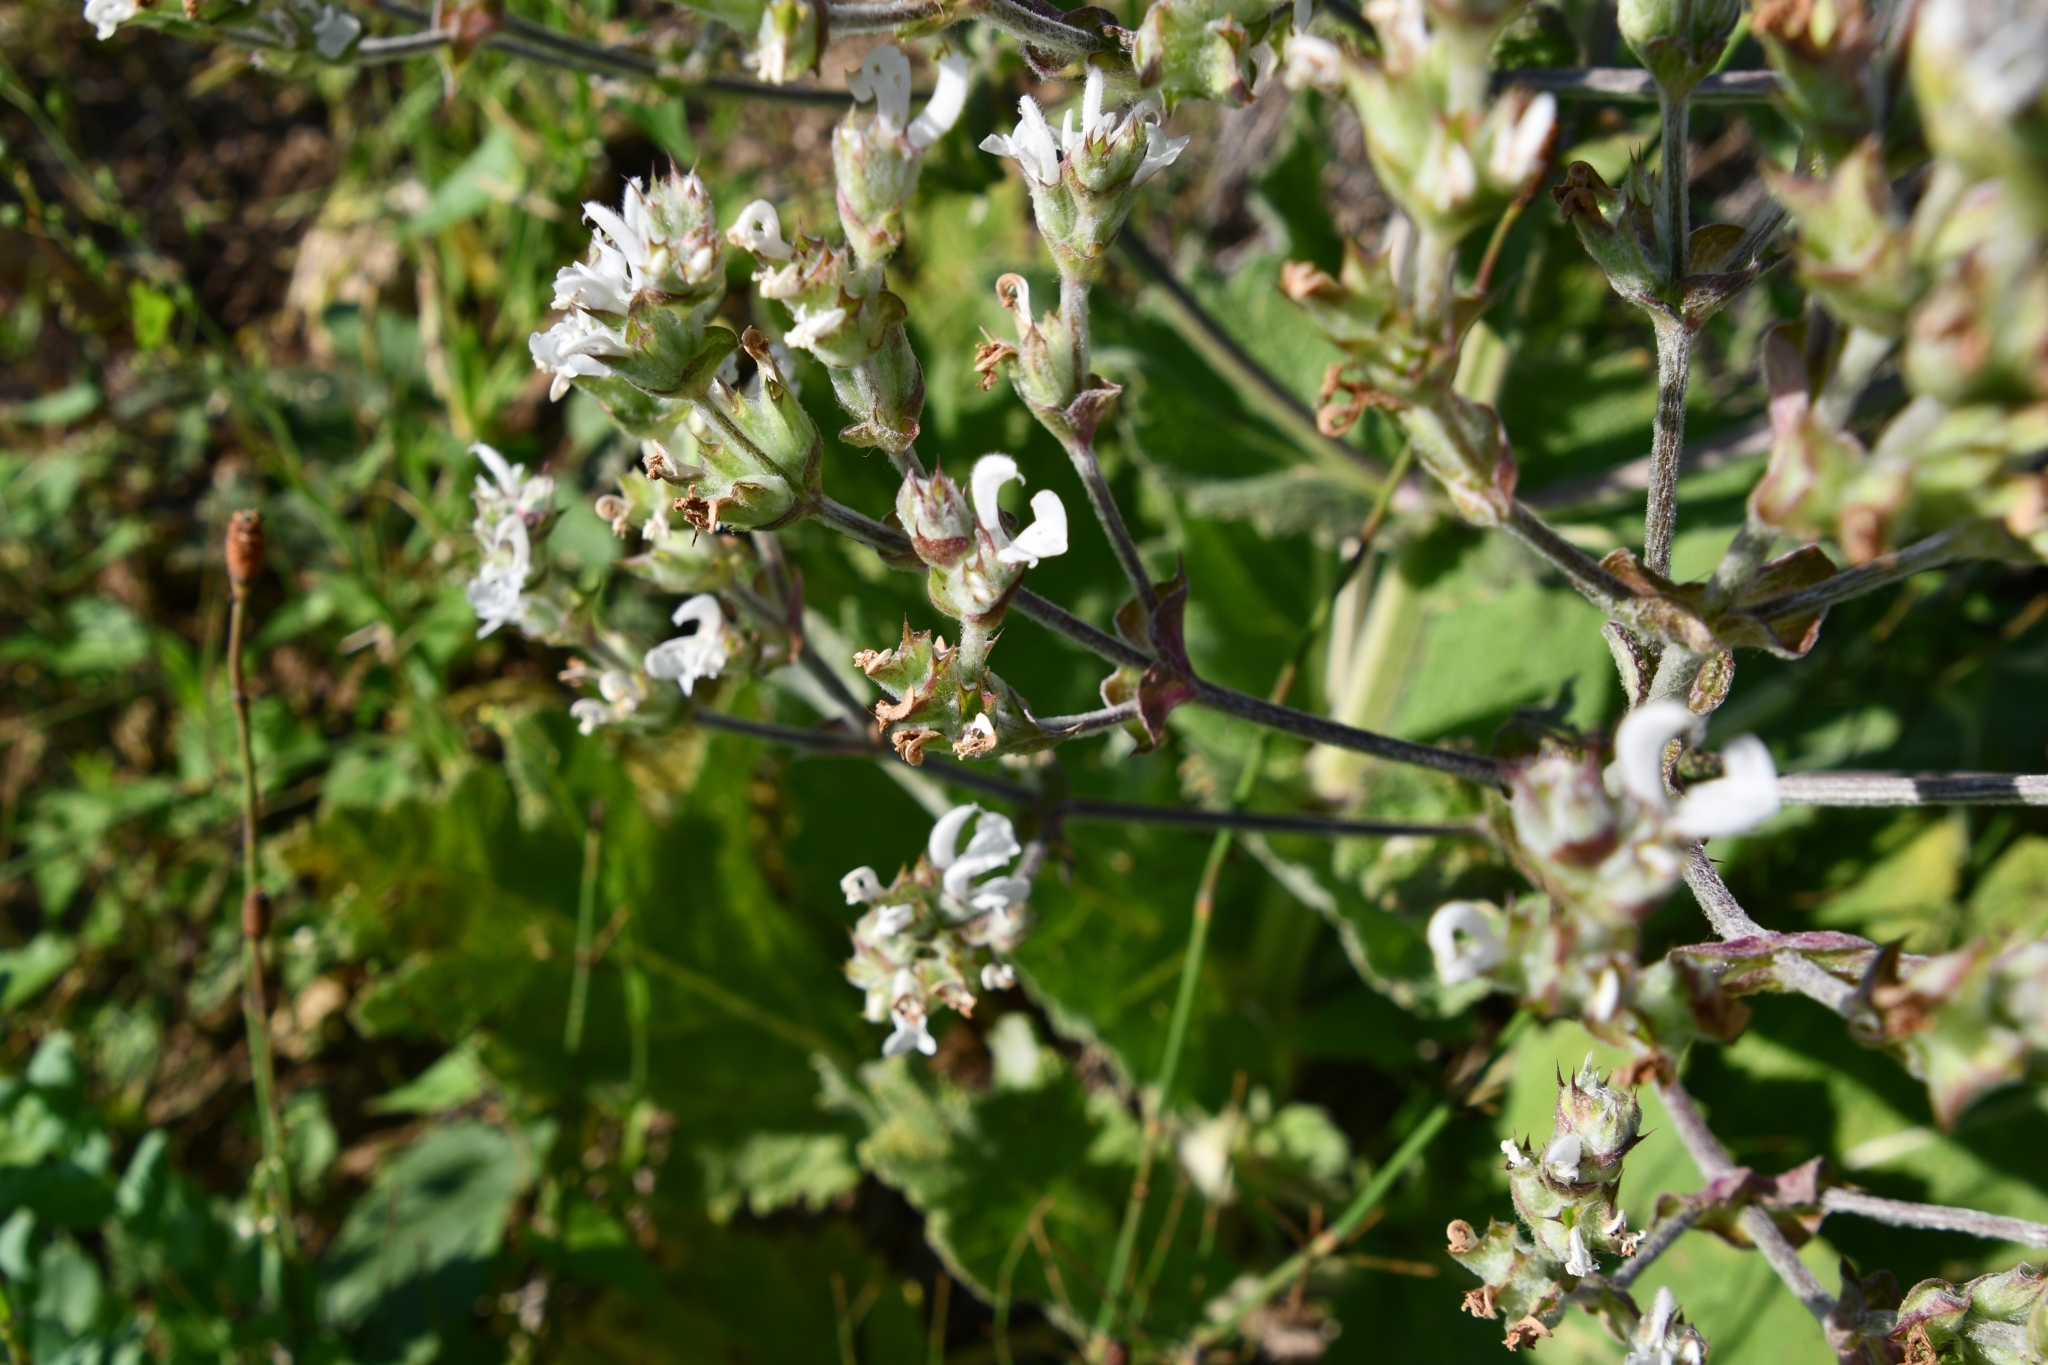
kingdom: Plantae
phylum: Tracheophyta
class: Magnoliopsida
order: Lamiales
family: Lamiaceae
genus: Salvia
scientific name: Salvia aethiopis
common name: Mediterranean sage
